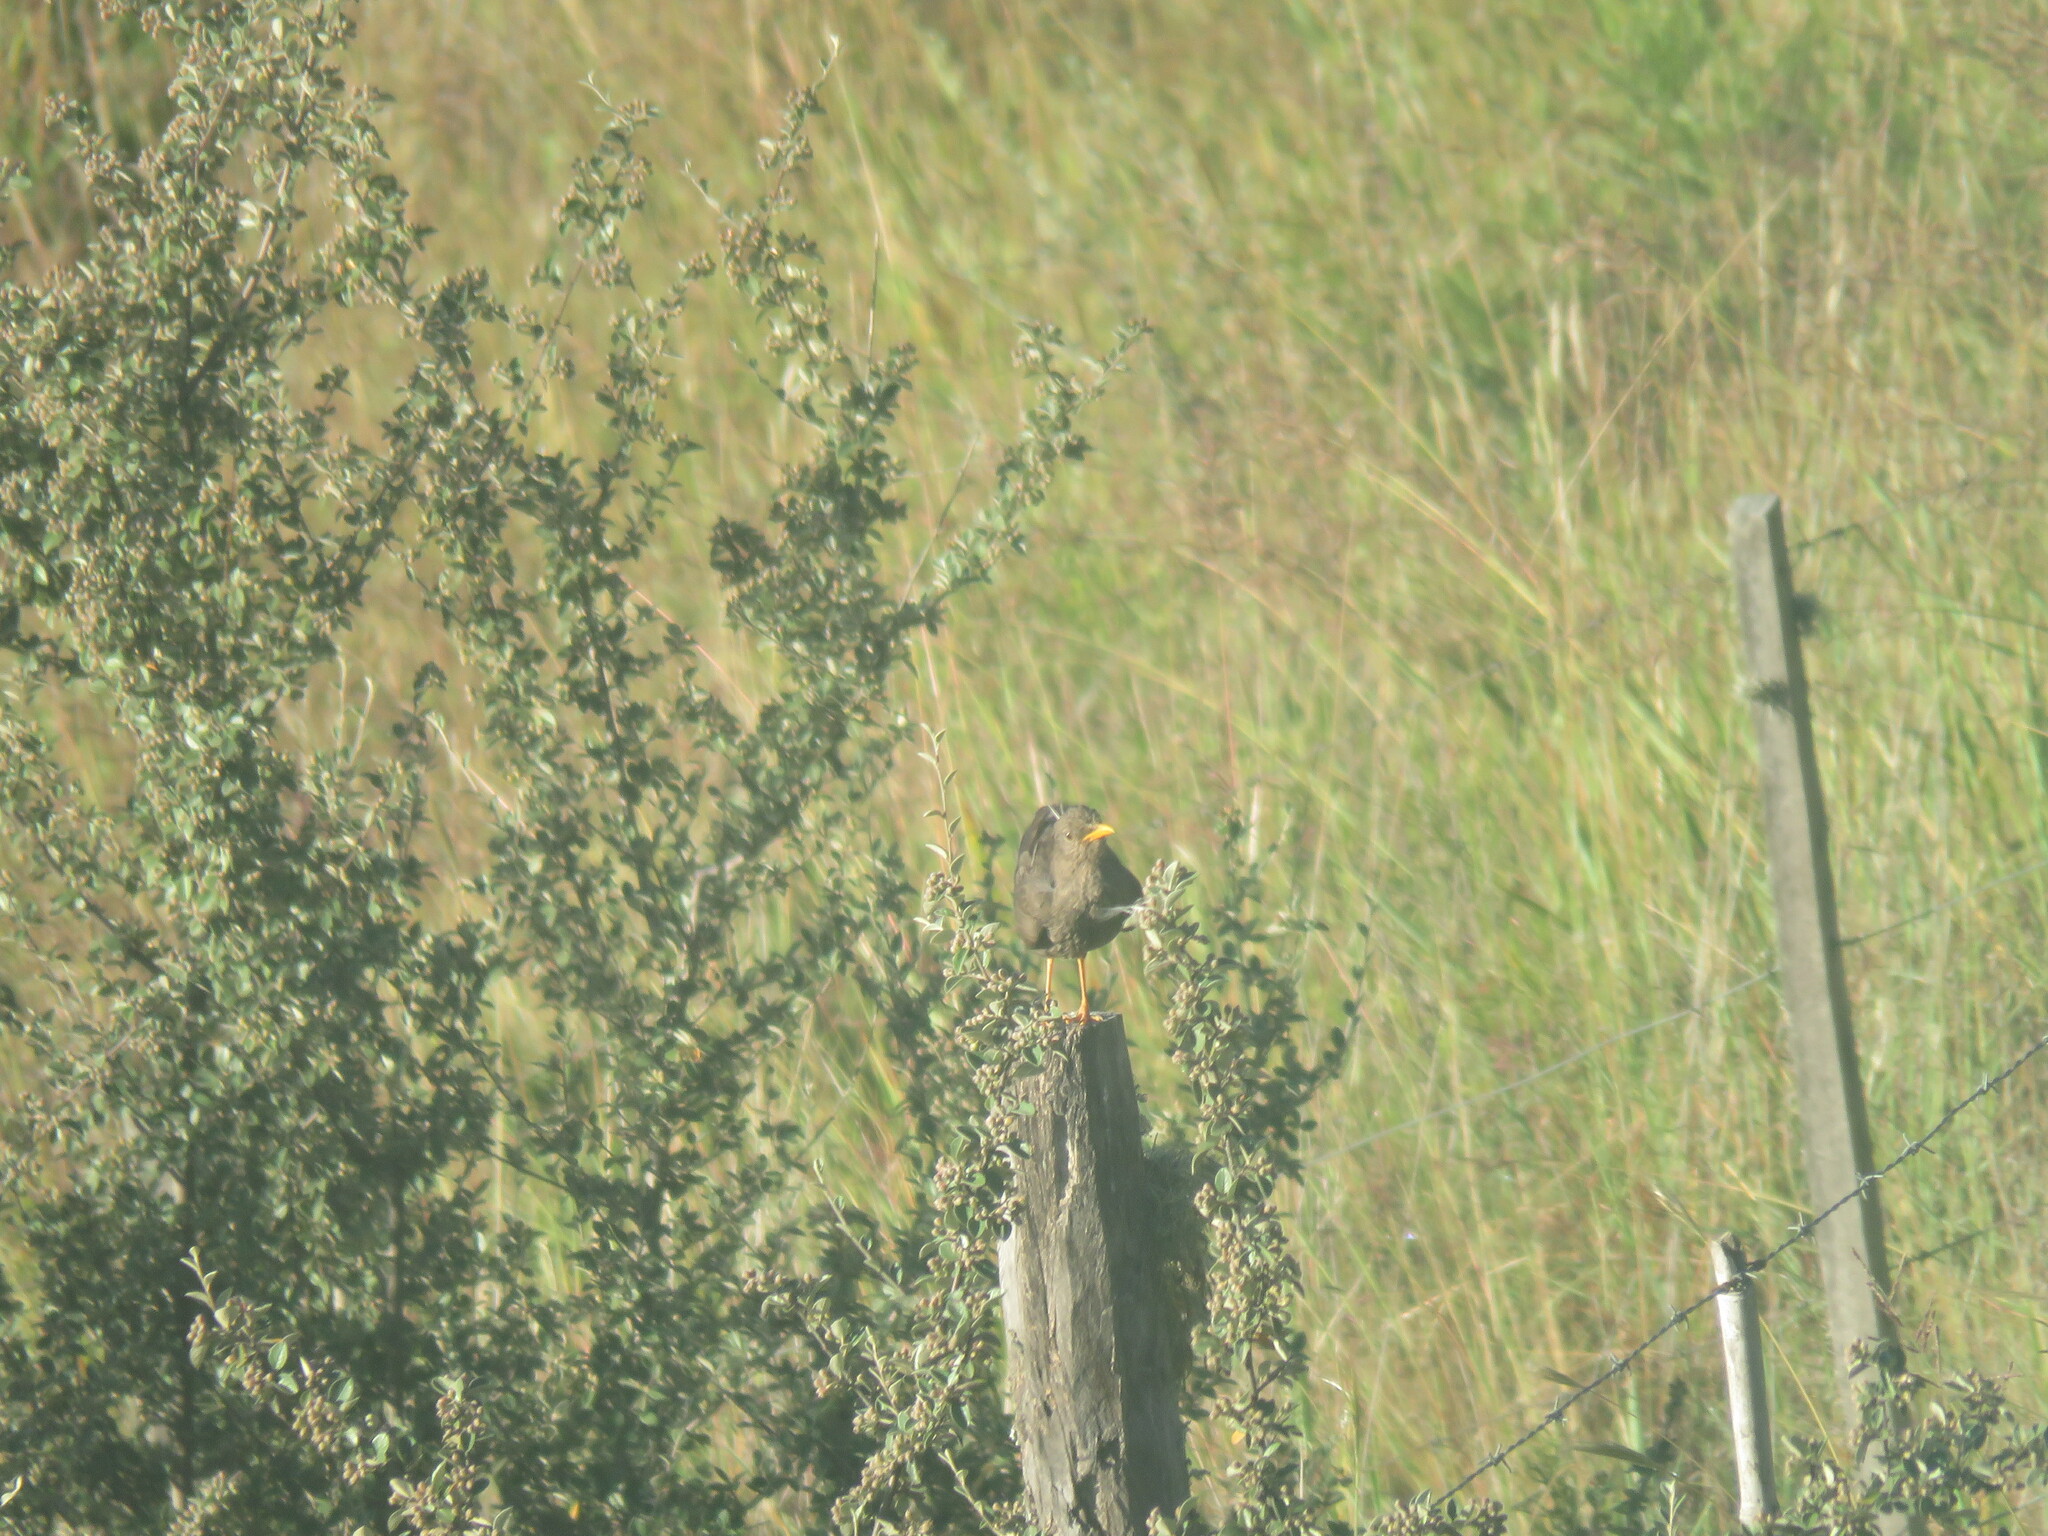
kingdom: Animalia
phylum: Chordata
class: Aves
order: Passeriformes
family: Turdidae
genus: Turdus
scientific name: Turdus chiguanco
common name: Chiguanco thrush
